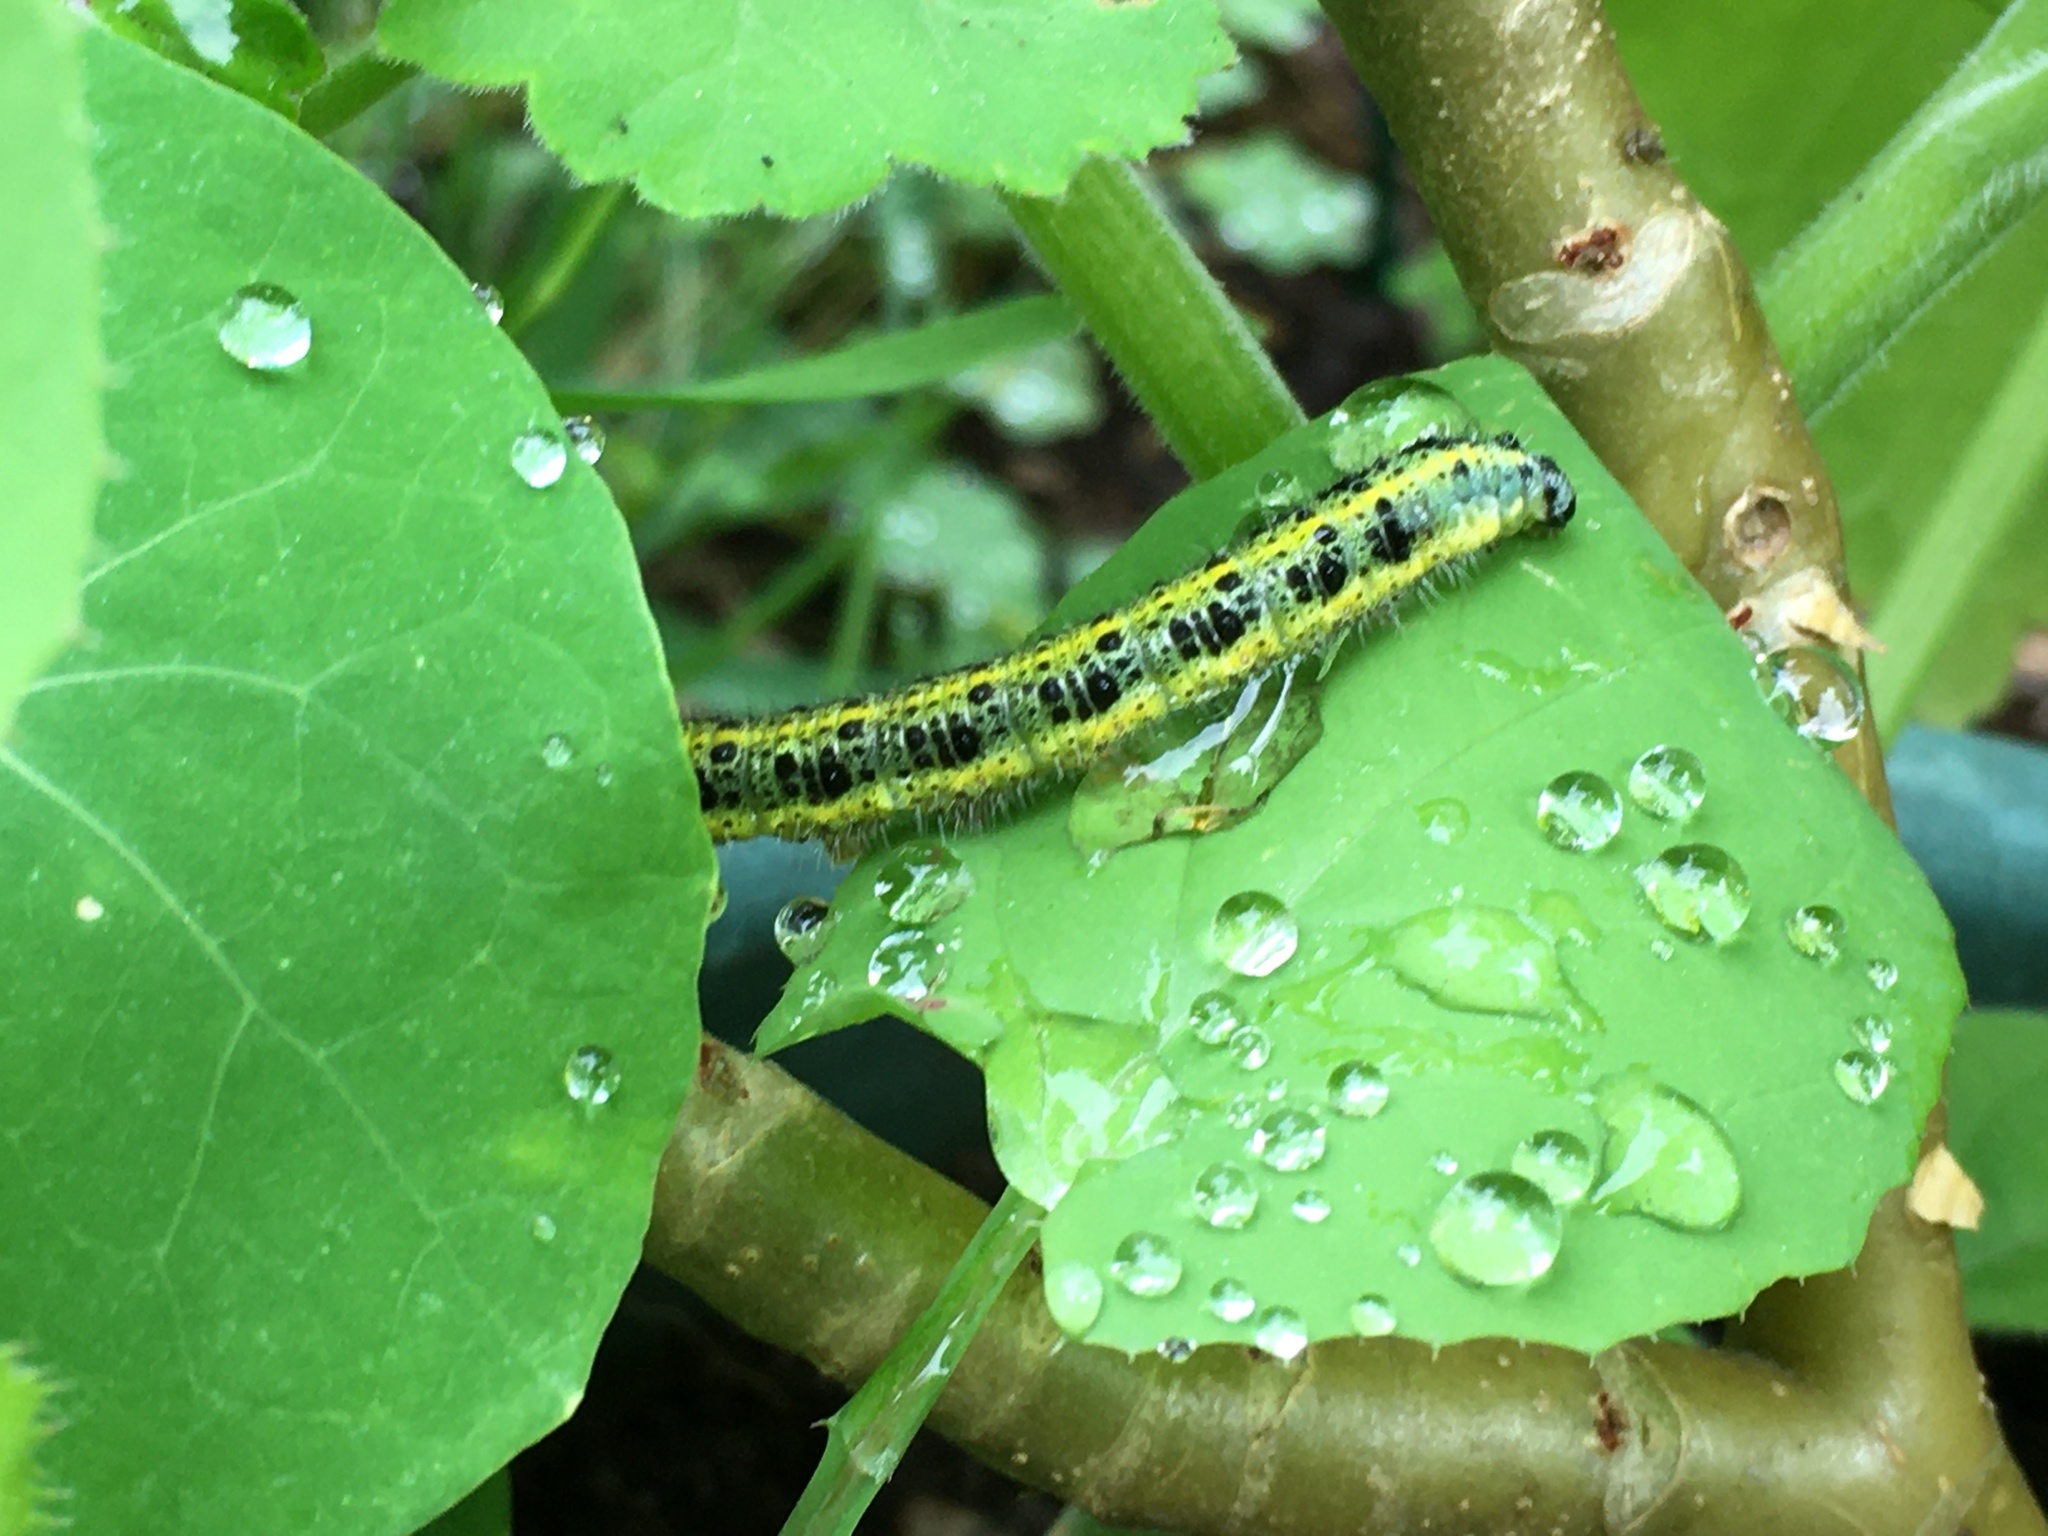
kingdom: Animalia
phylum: Arthropoda
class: Insecta
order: Lepidoptera
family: Pieridae
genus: Pieris
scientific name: Pieris brassicae
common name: Large white
